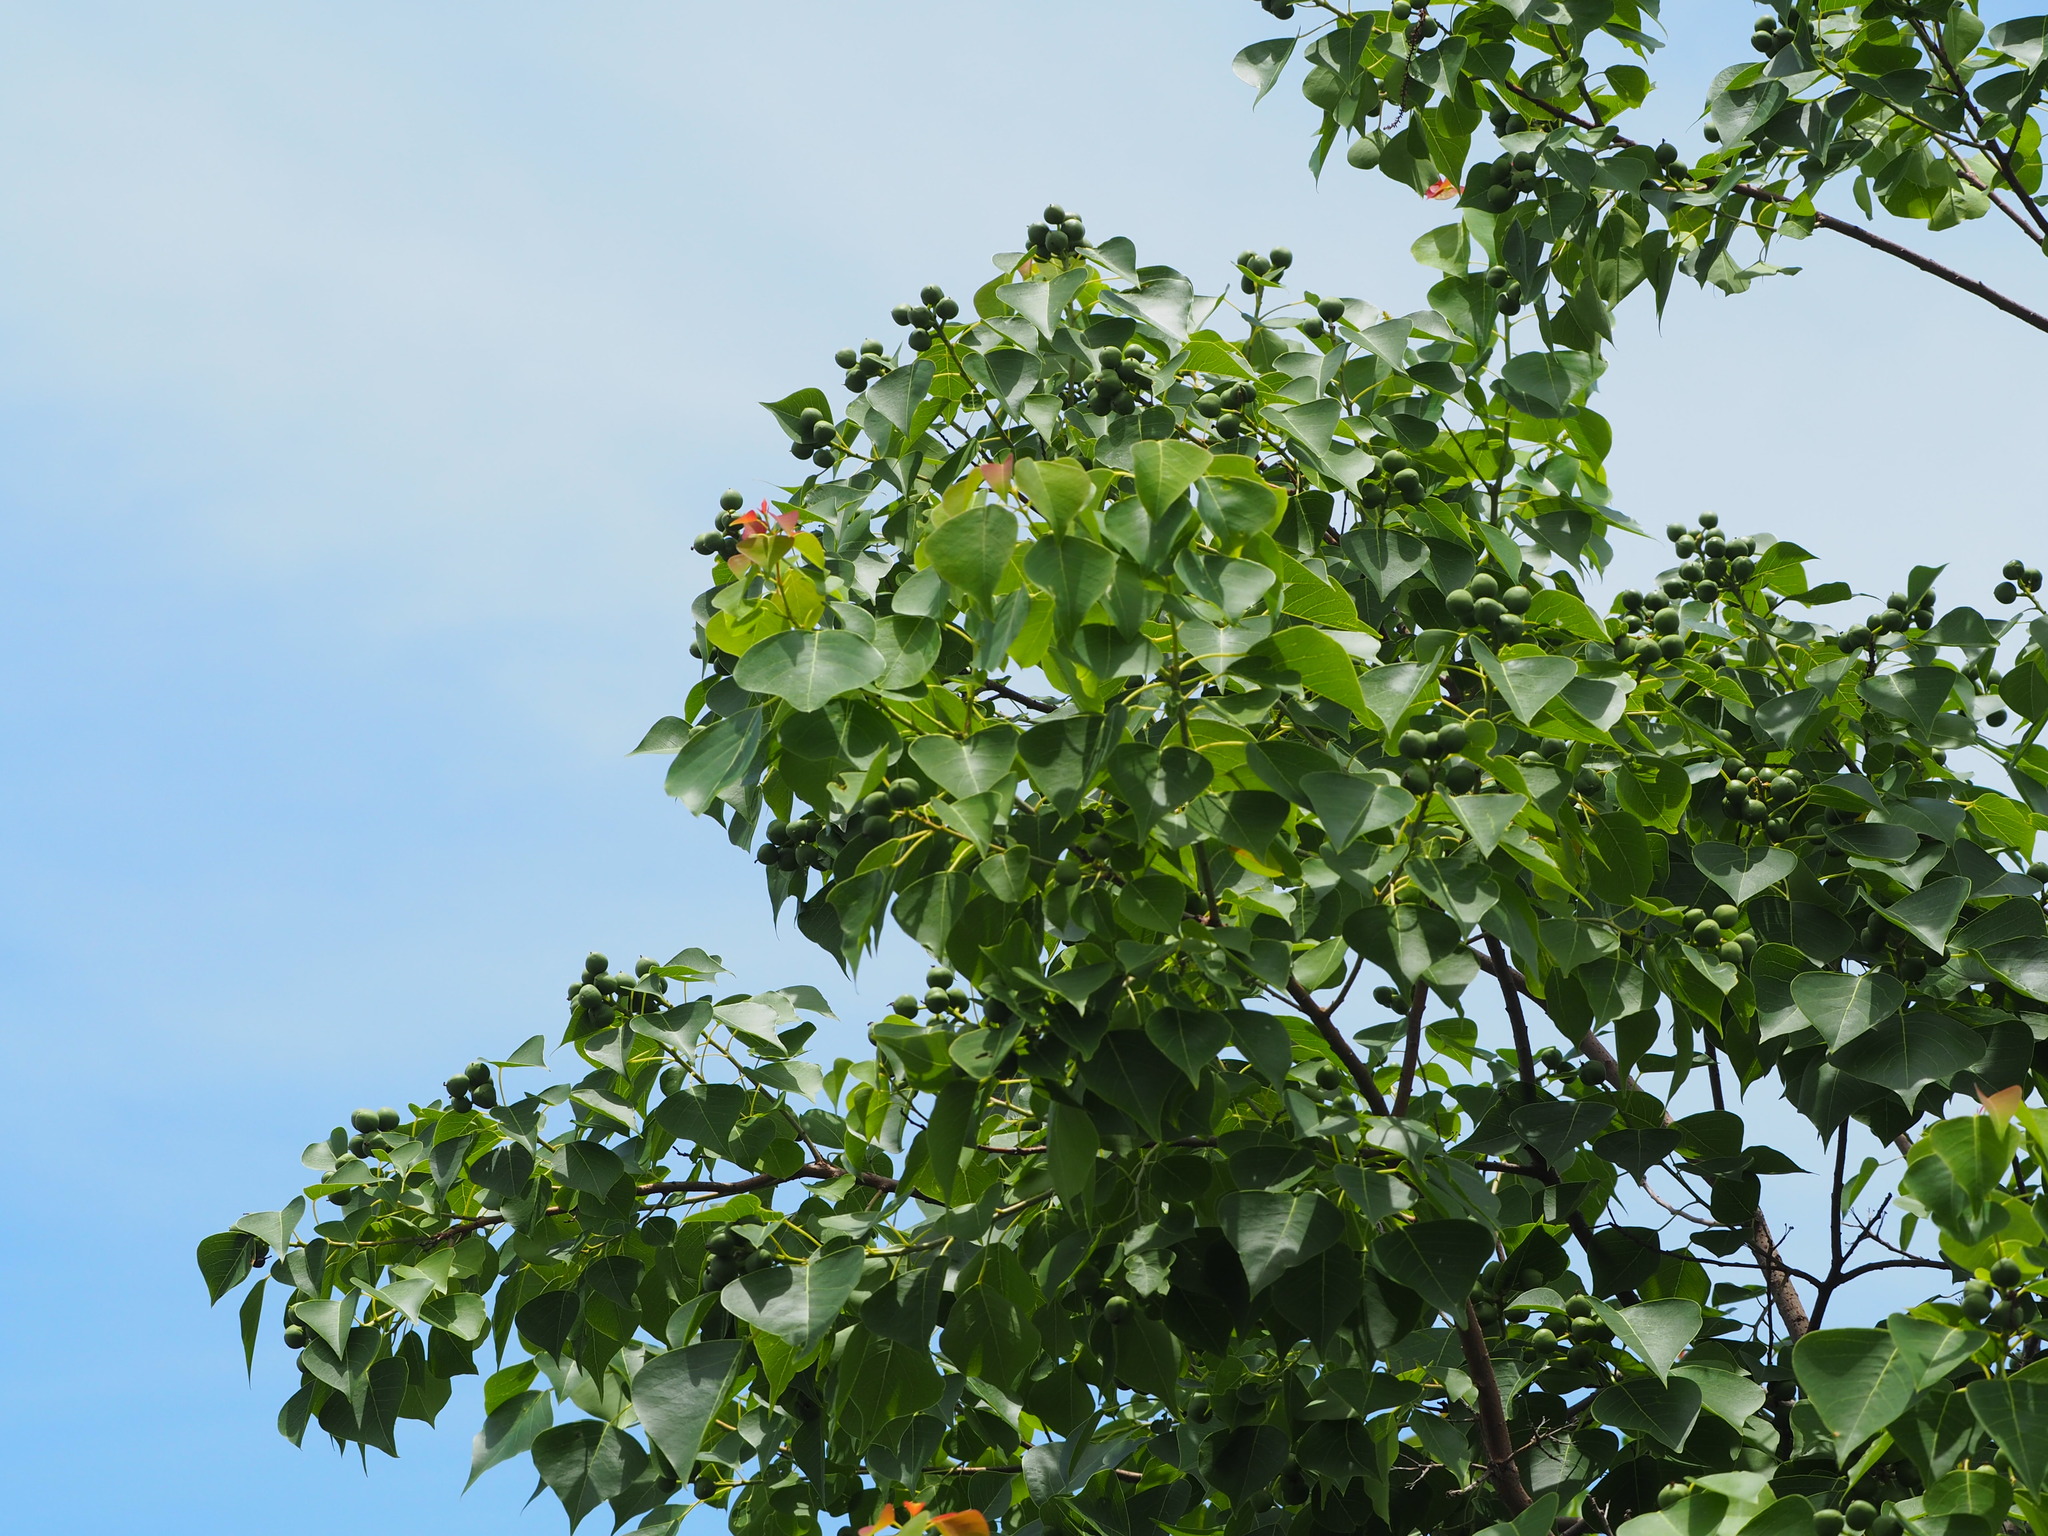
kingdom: Plantae
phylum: Tracheophyta
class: Magnoliopsida
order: Malpighiales
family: Euphorbiaceae
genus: Triadica
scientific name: Triadica sebifera
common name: Chinese tallow
